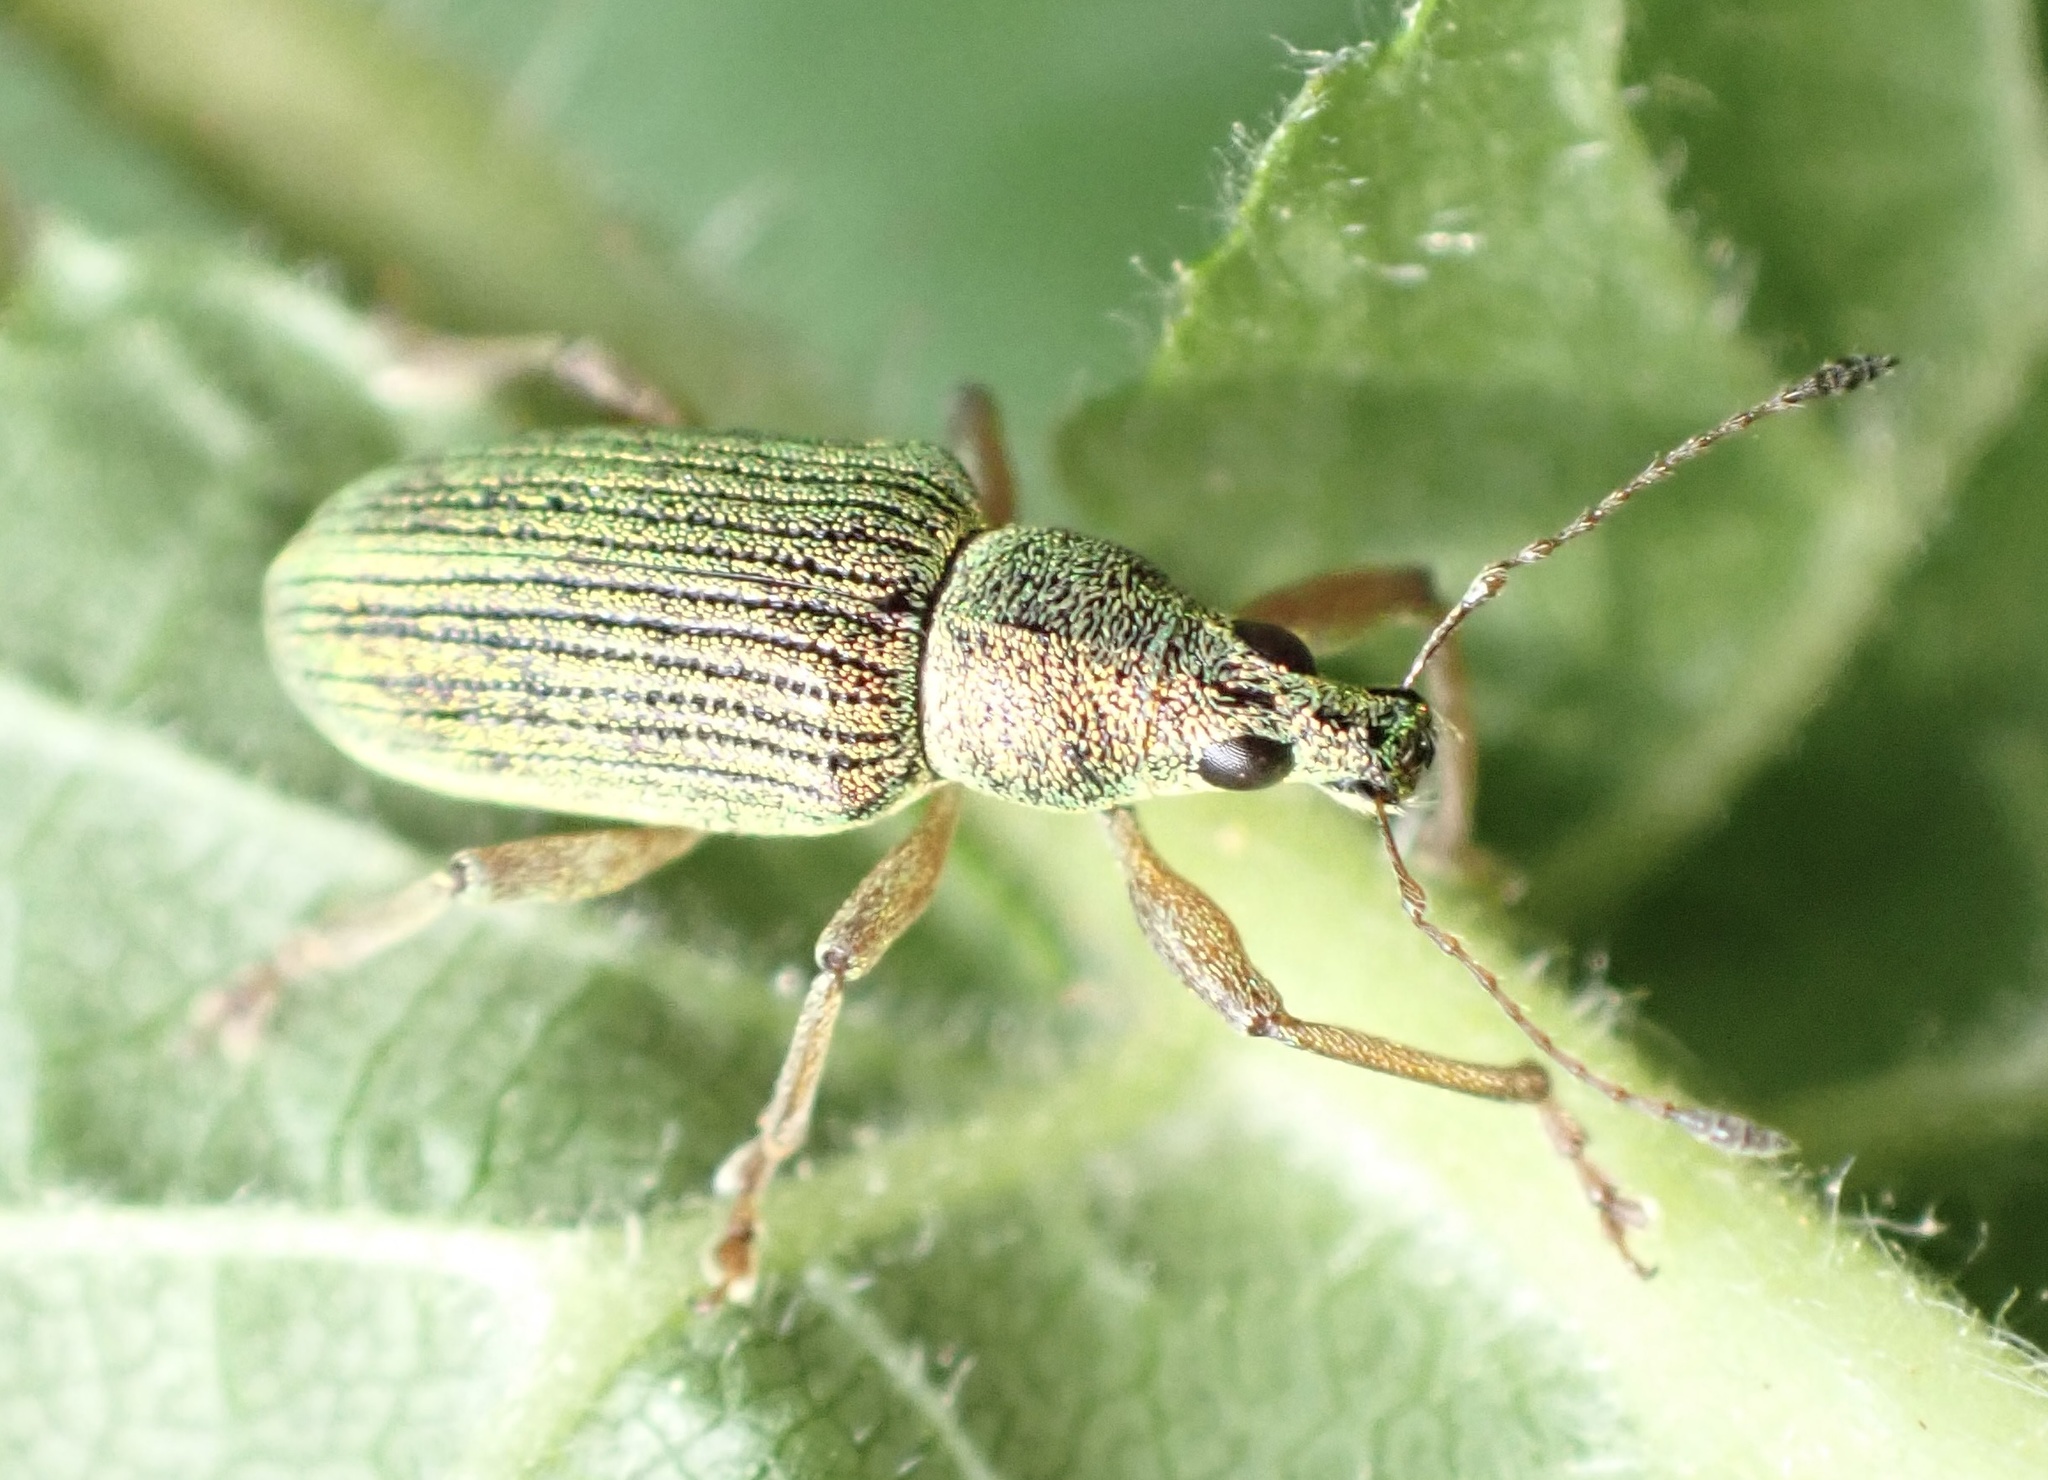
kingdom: Animalia
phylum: Arthropoda
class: Insecta
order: Coleoptera
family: Curculionidae
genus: Polydrusus
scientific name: Polydrusus formosus
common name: Weevil
